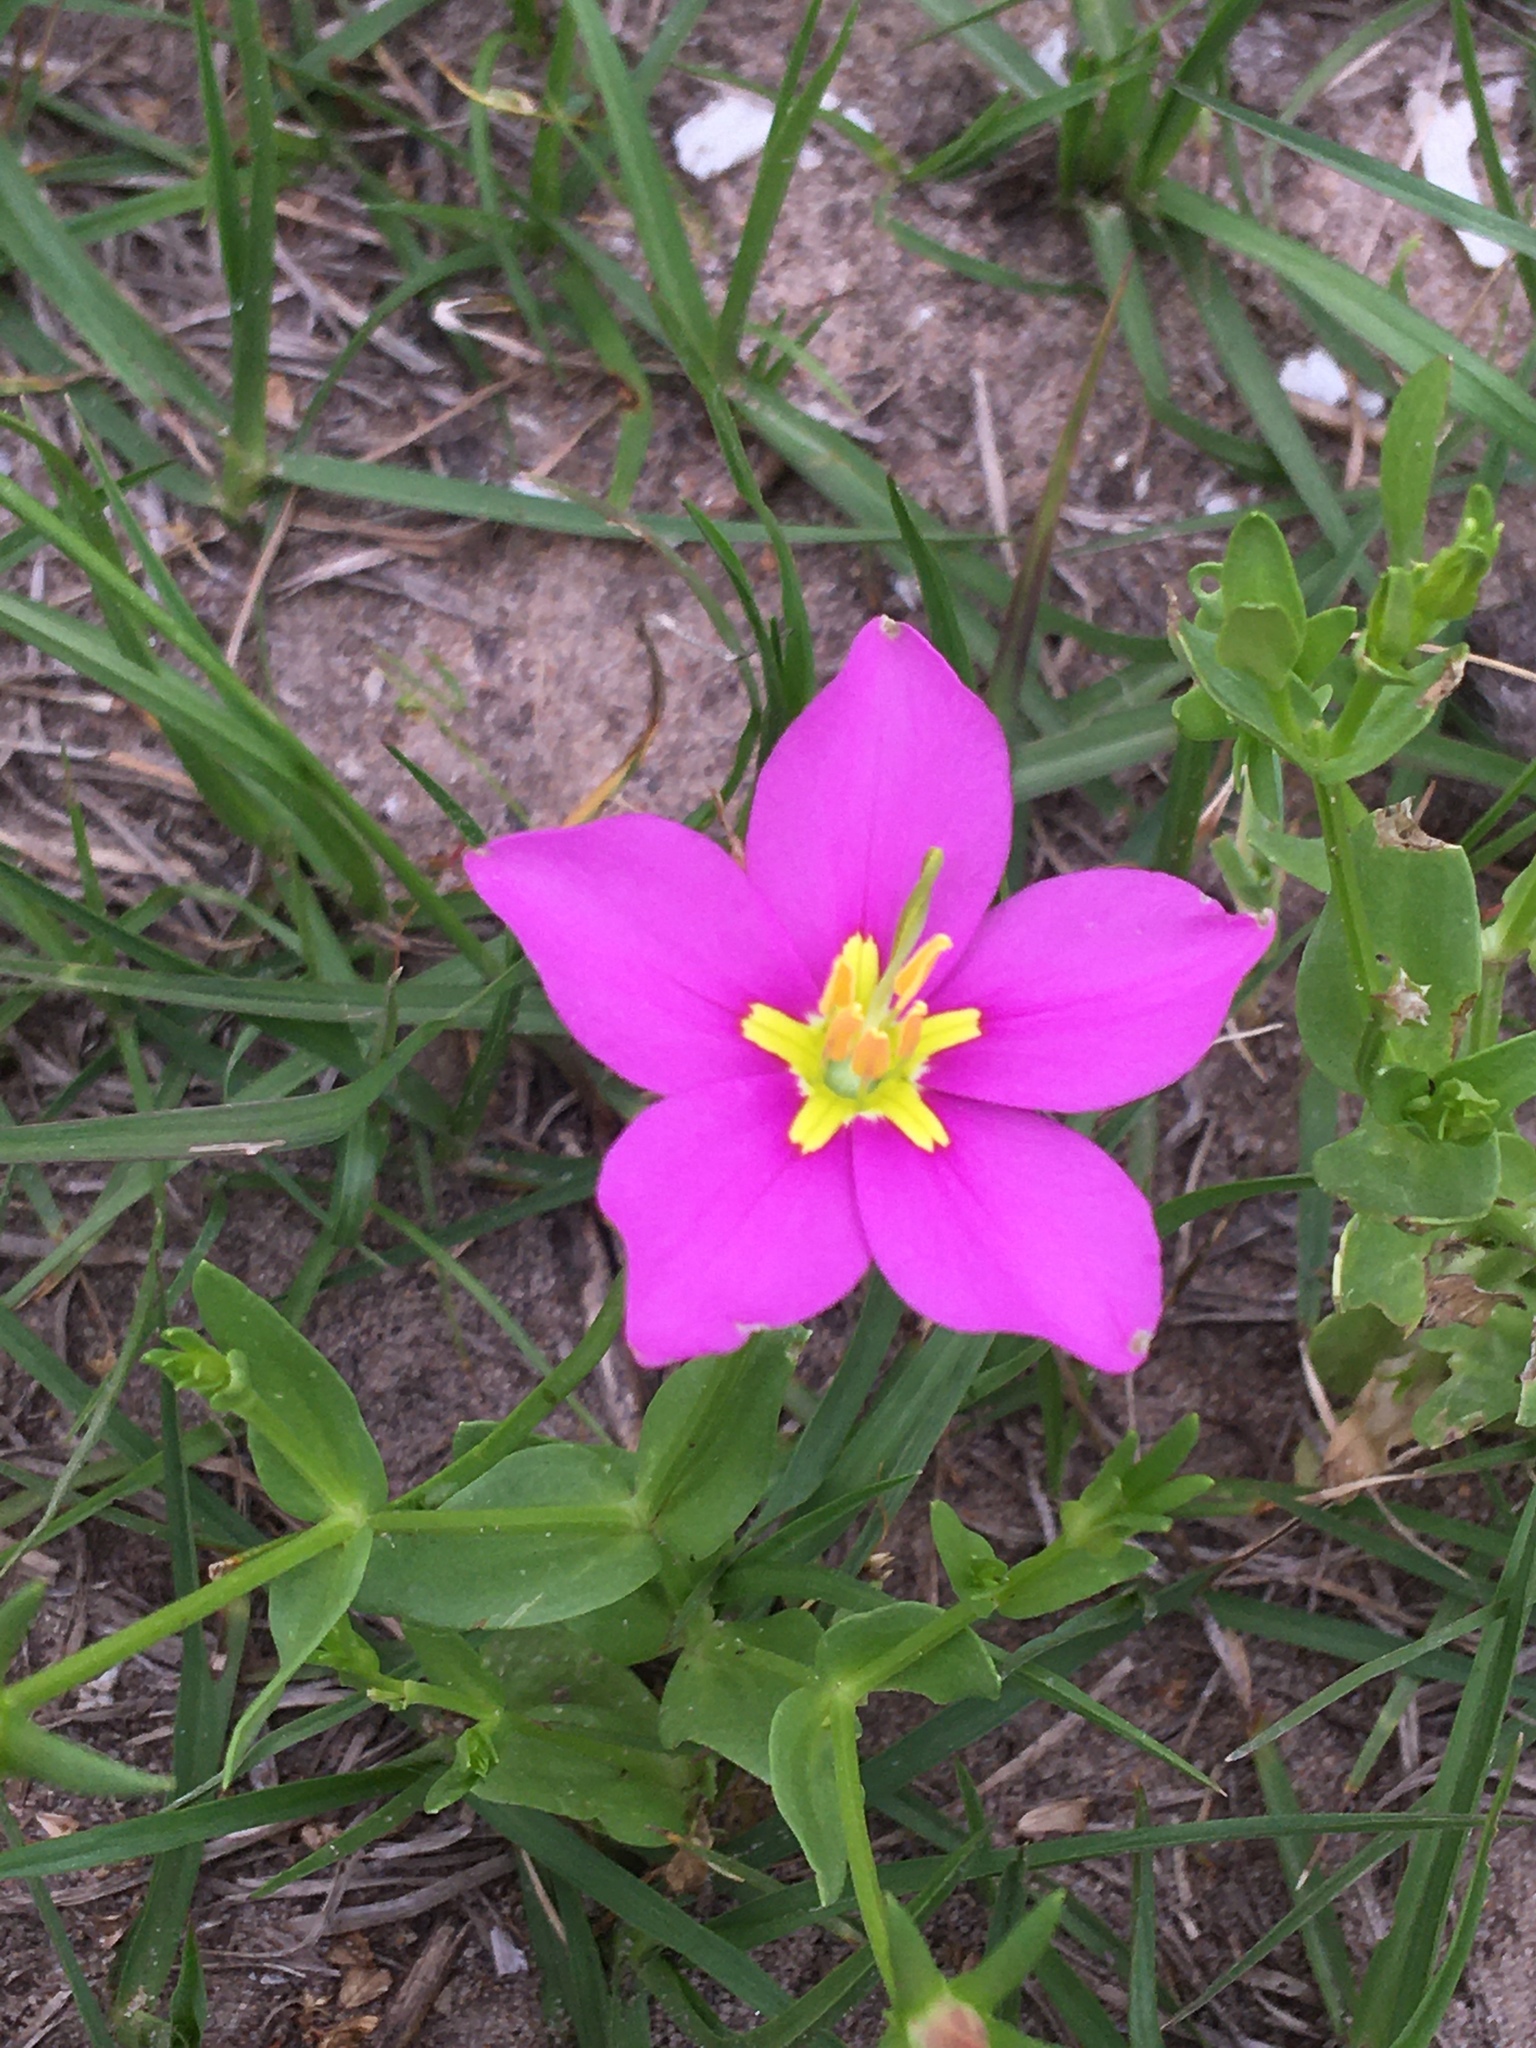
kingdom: Plantae
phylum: Tracheophyta
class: Magnoliopsida
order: Gentianales
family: Gentianaceae
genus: Sabatia
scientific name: Sabatia campestris
